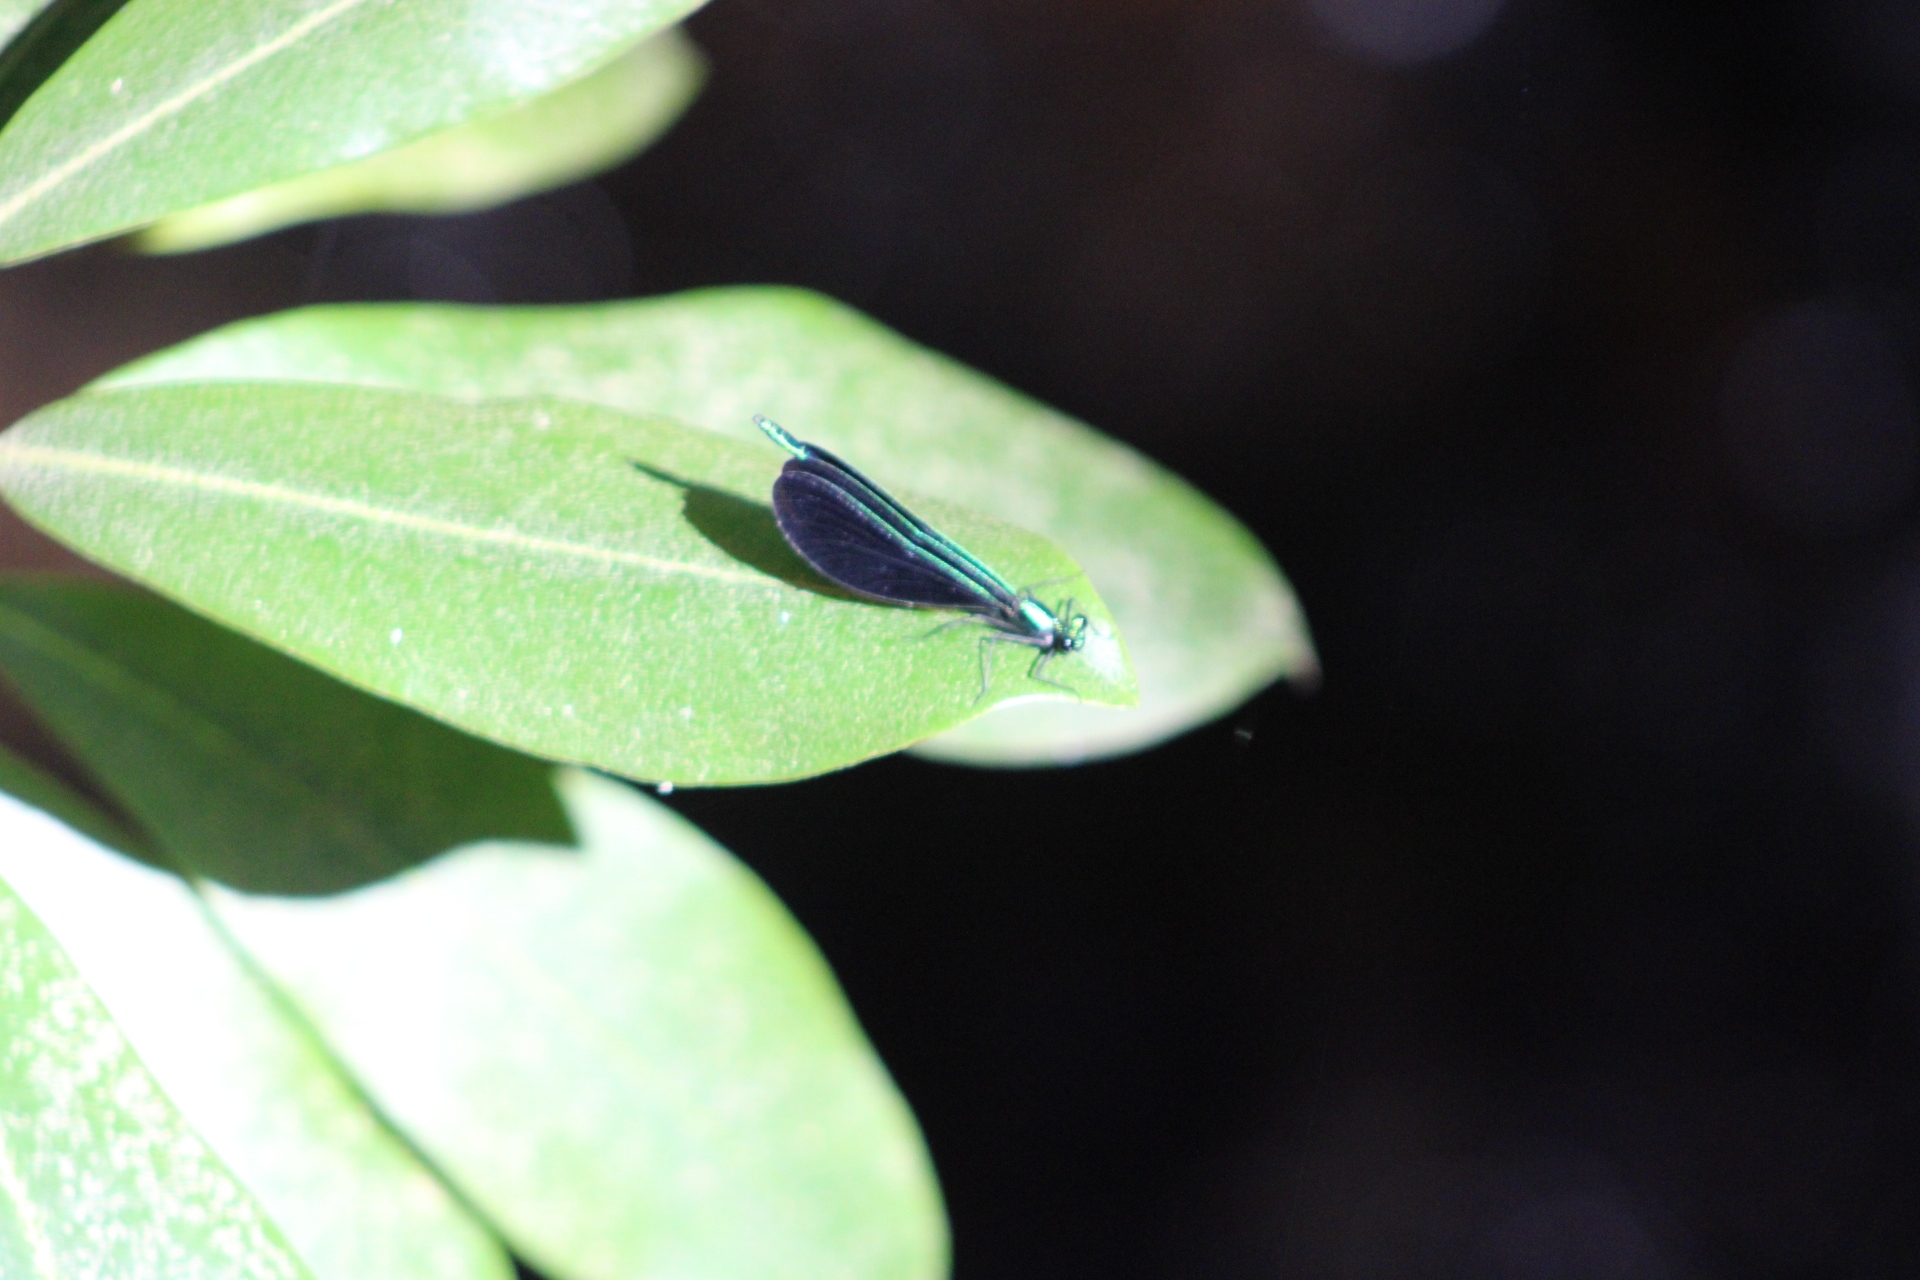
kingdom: Animalia
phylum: Arthropoda
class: Insecta
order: Odonata
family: Calopterygidae
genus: Calopteryx
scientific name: Calopteryx maculata
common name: Ebony jewelwing
